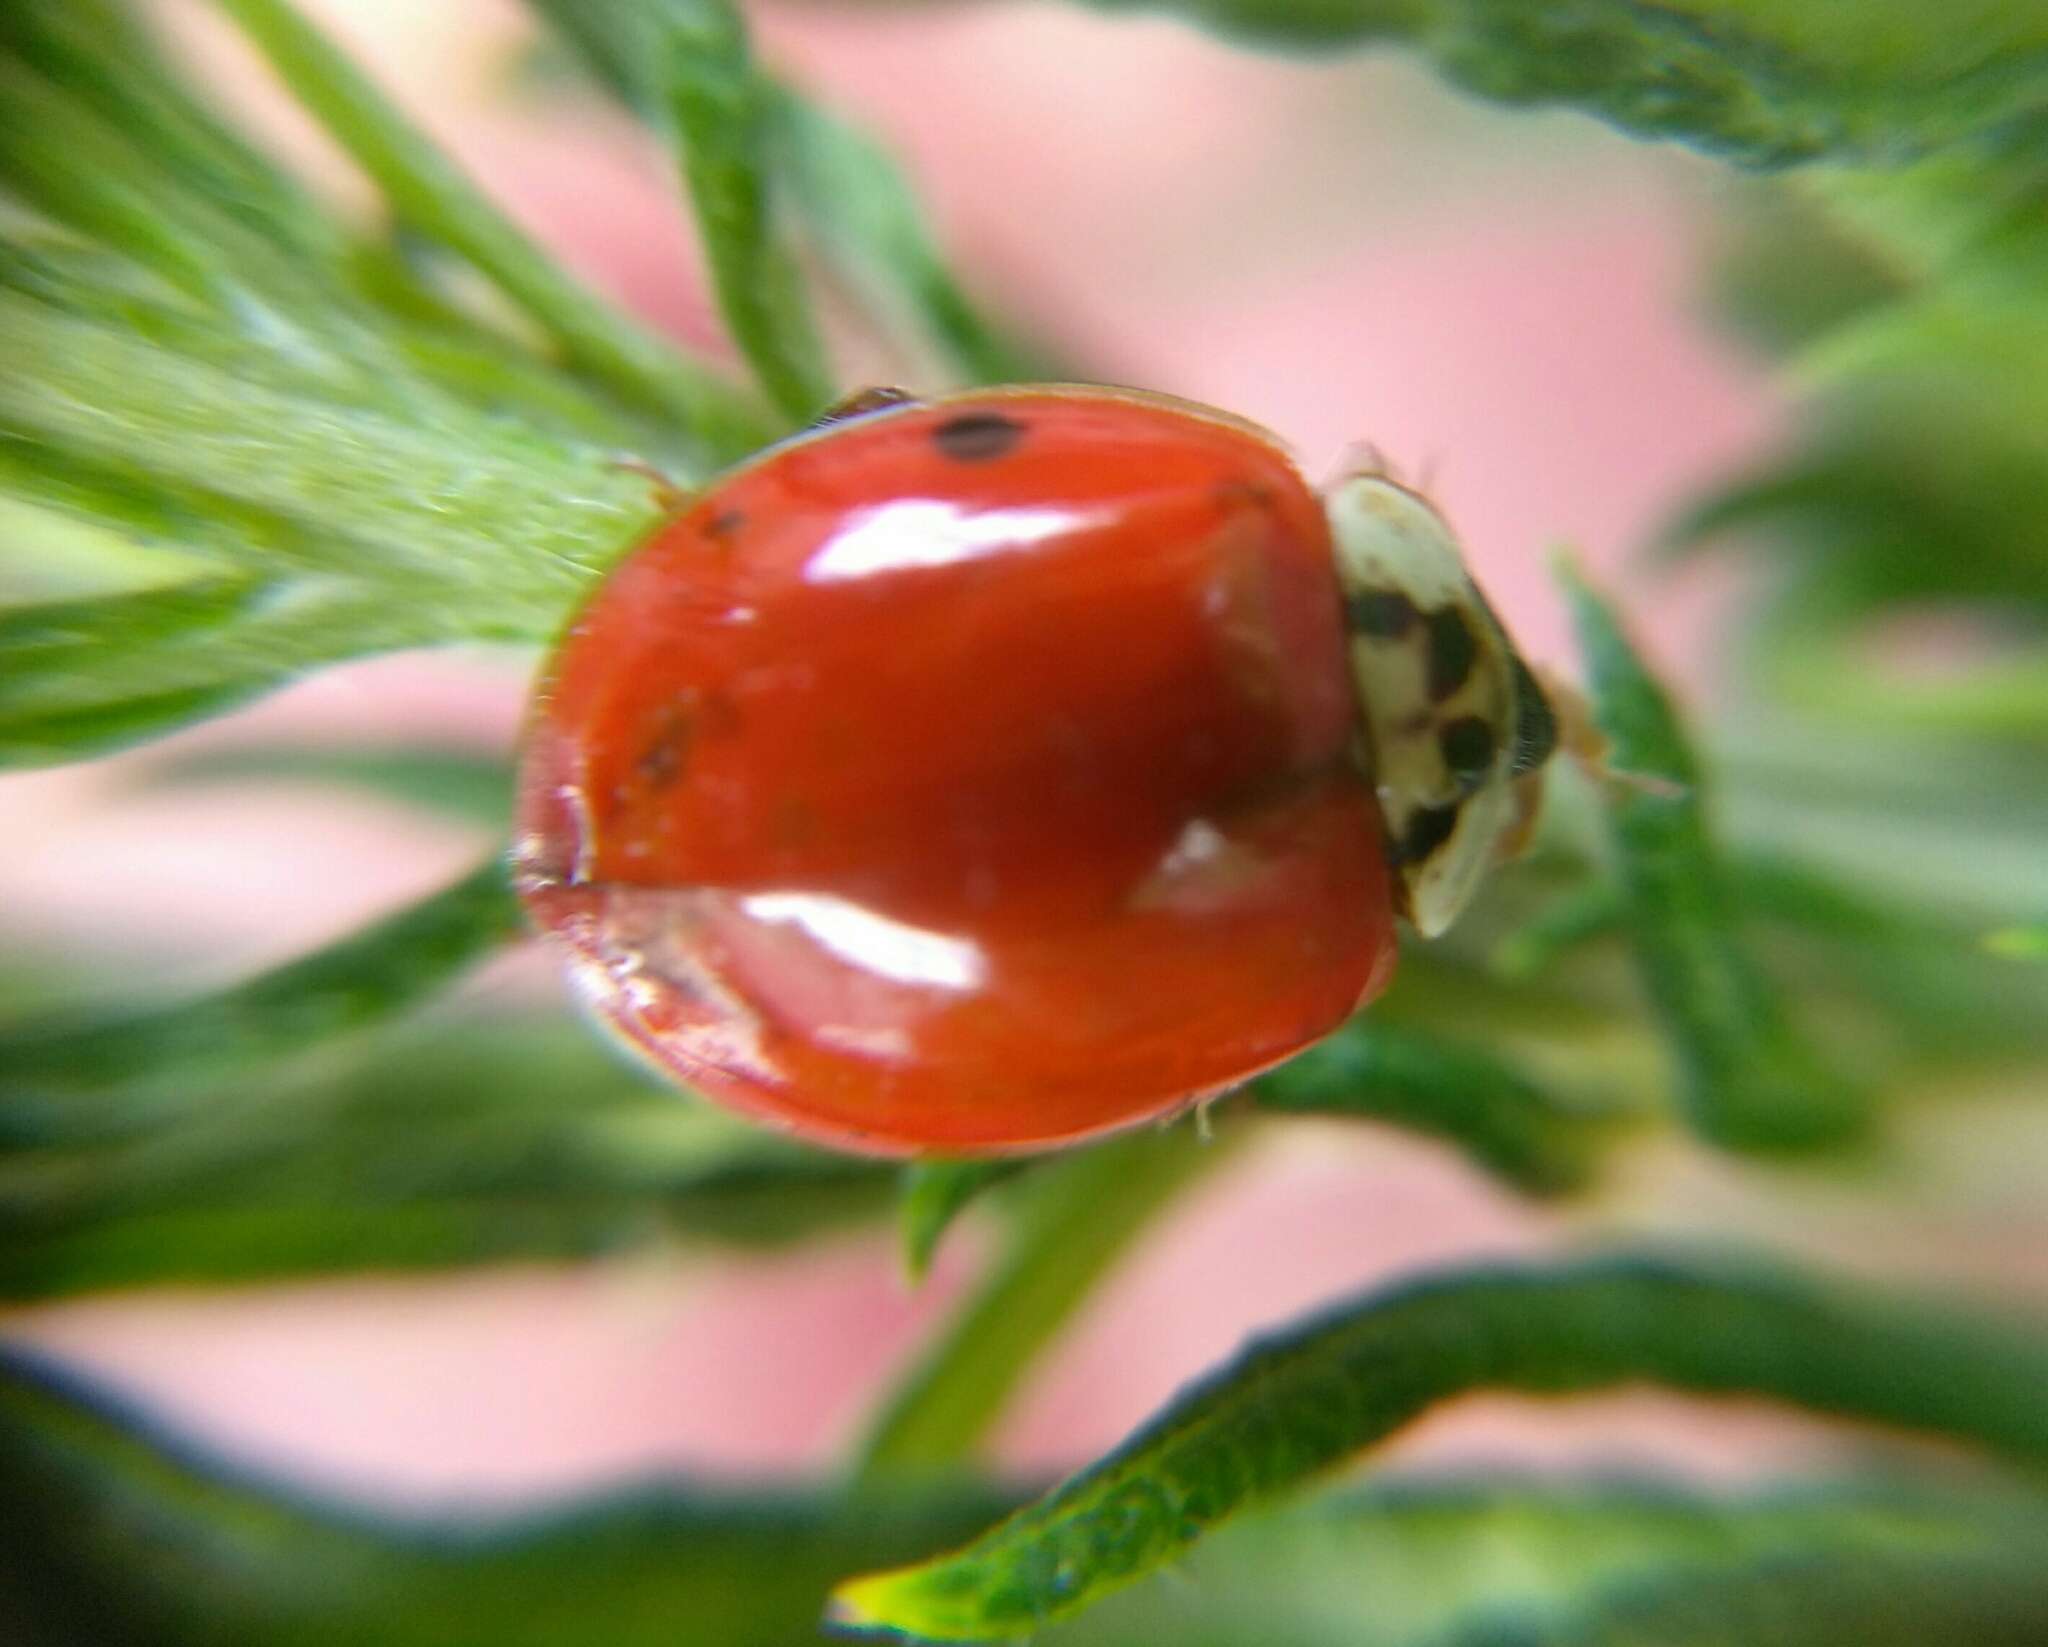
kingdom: Animalia
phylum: Arthropoda
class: Insecta
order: Coleoptera
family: Coccinellidae
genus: Harmonia
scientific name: Harmonia axyridis
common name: Harlequin ladybird
